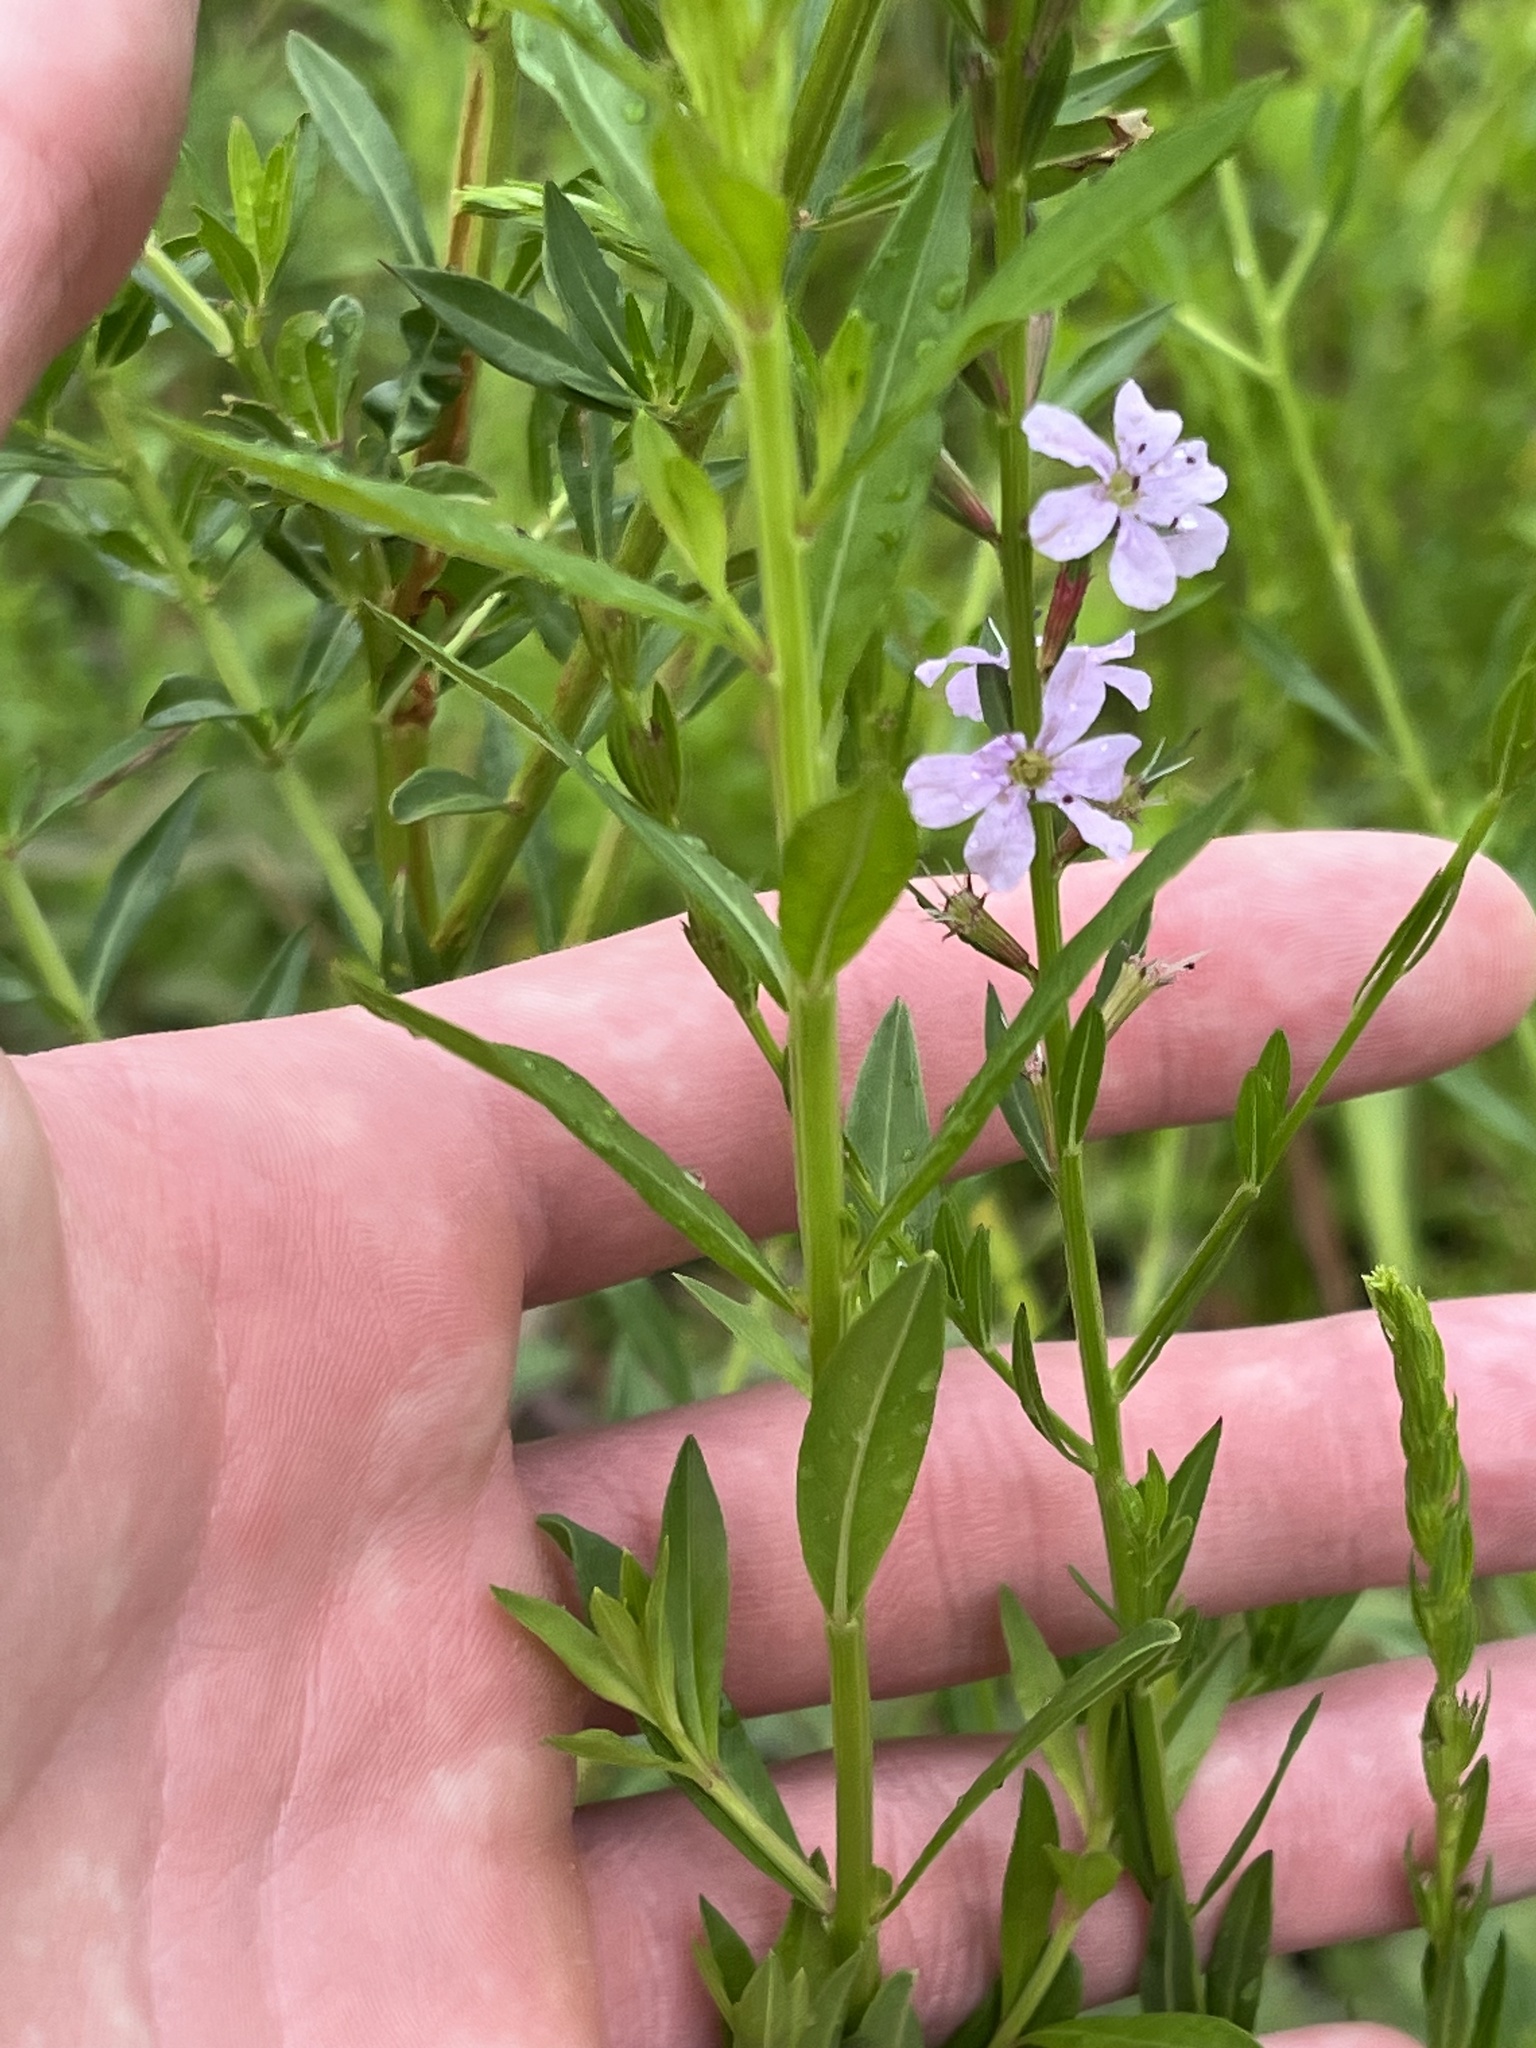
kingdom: Plantae
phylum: Tracheophyta
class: Magnoliopsida
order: Myrtales
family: Lythraceae
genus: Lythrum
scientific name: Lythrum alatum
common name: Winged loosestrife
